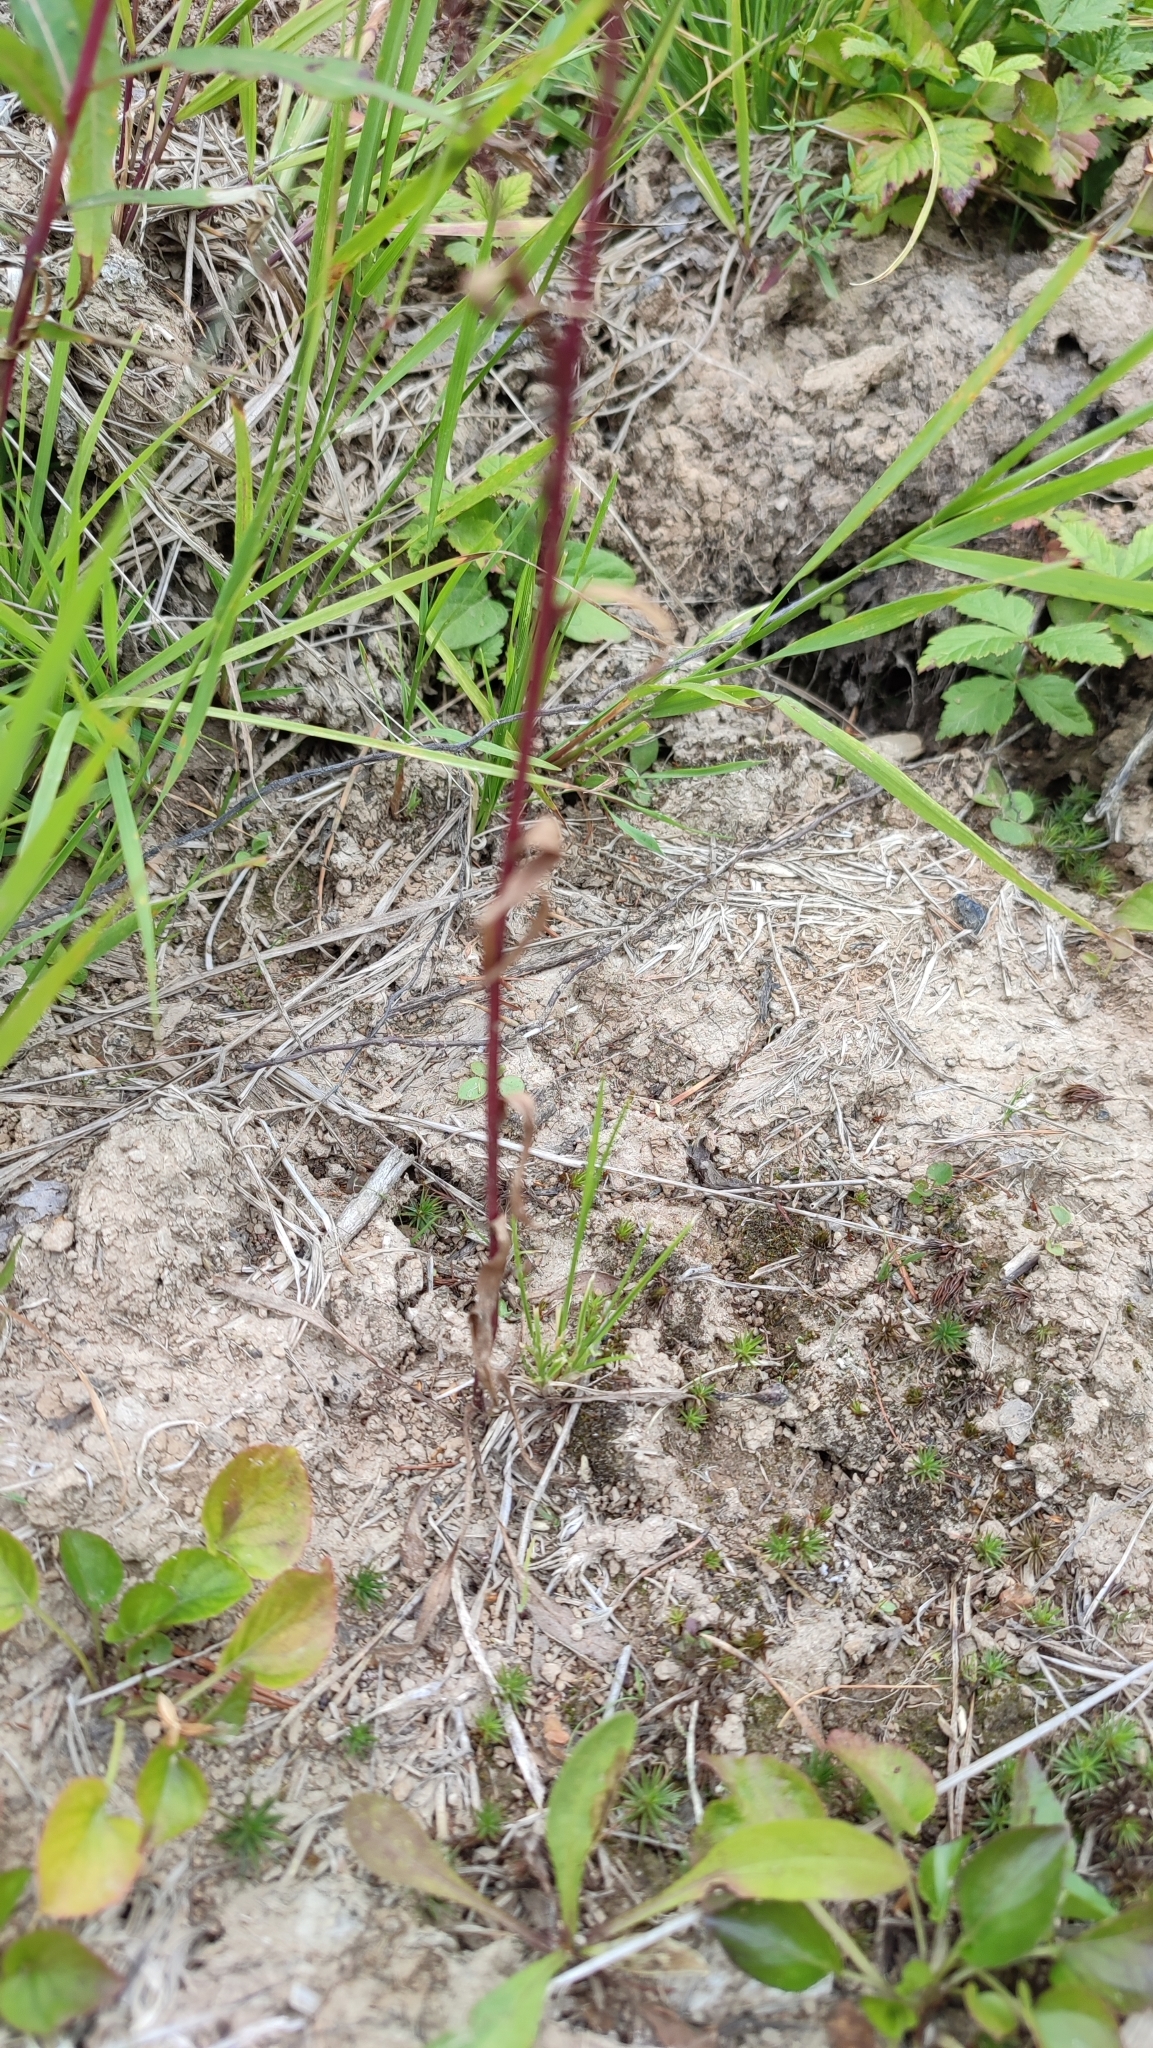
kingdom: Plantae
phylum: Tracheophyta
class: Magnoliopsida
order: Asterales
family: Asteraceae
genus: Erigeron
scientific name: Erigeron acris
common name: Blue fleabane
